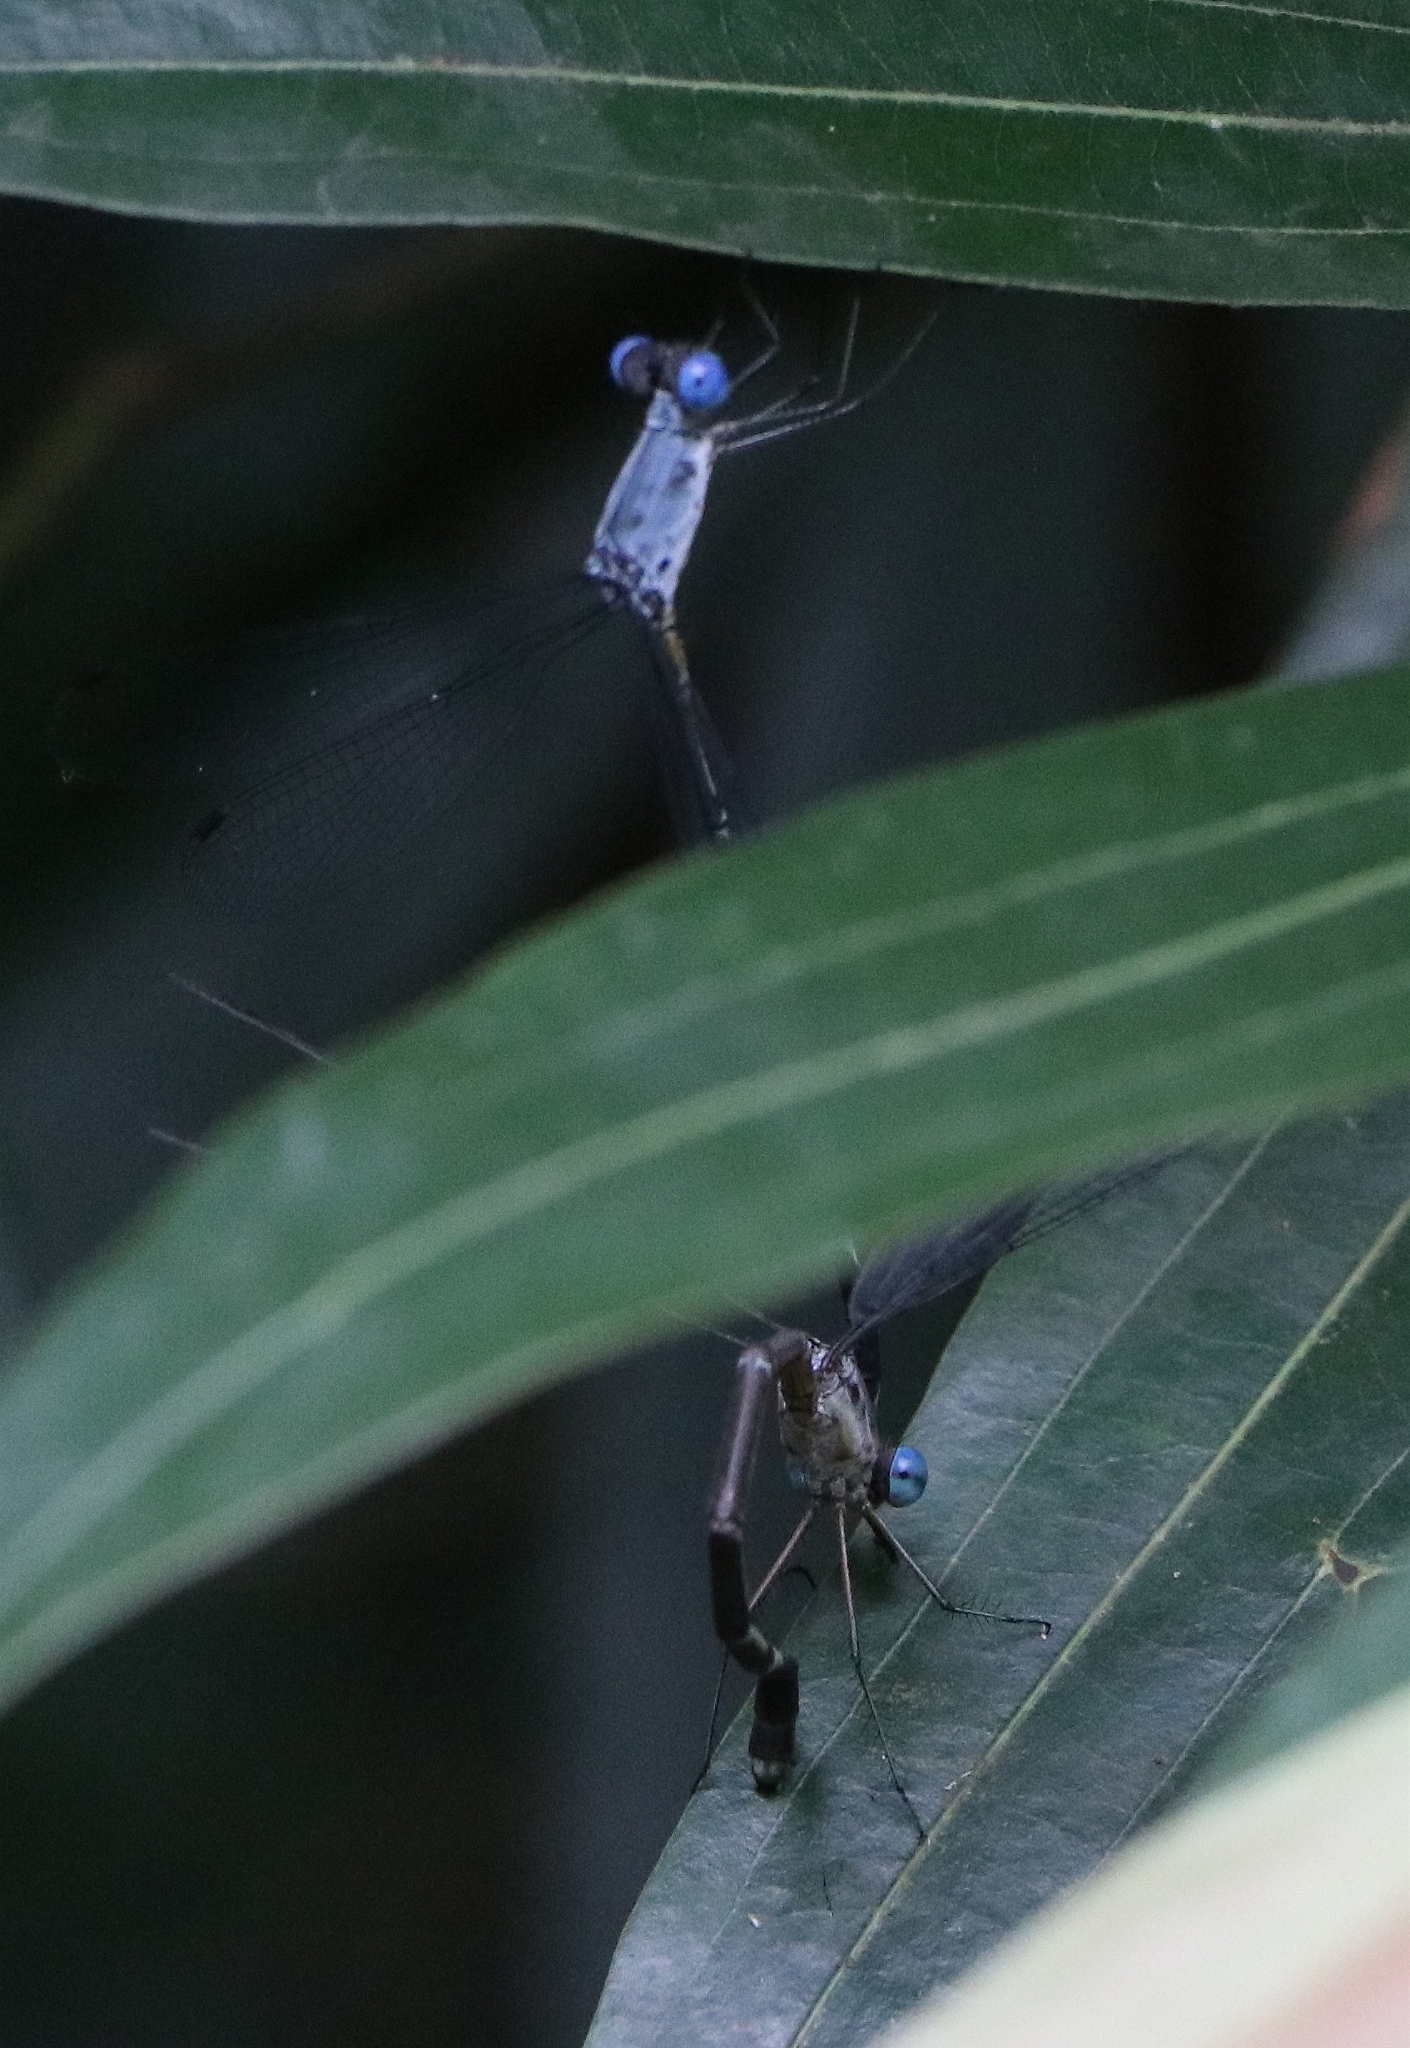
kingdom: Animalia
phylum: Arthropoda
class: Insecta
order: Odonata
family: Lestidae
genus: Lestes
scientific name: Lestes dorothea
